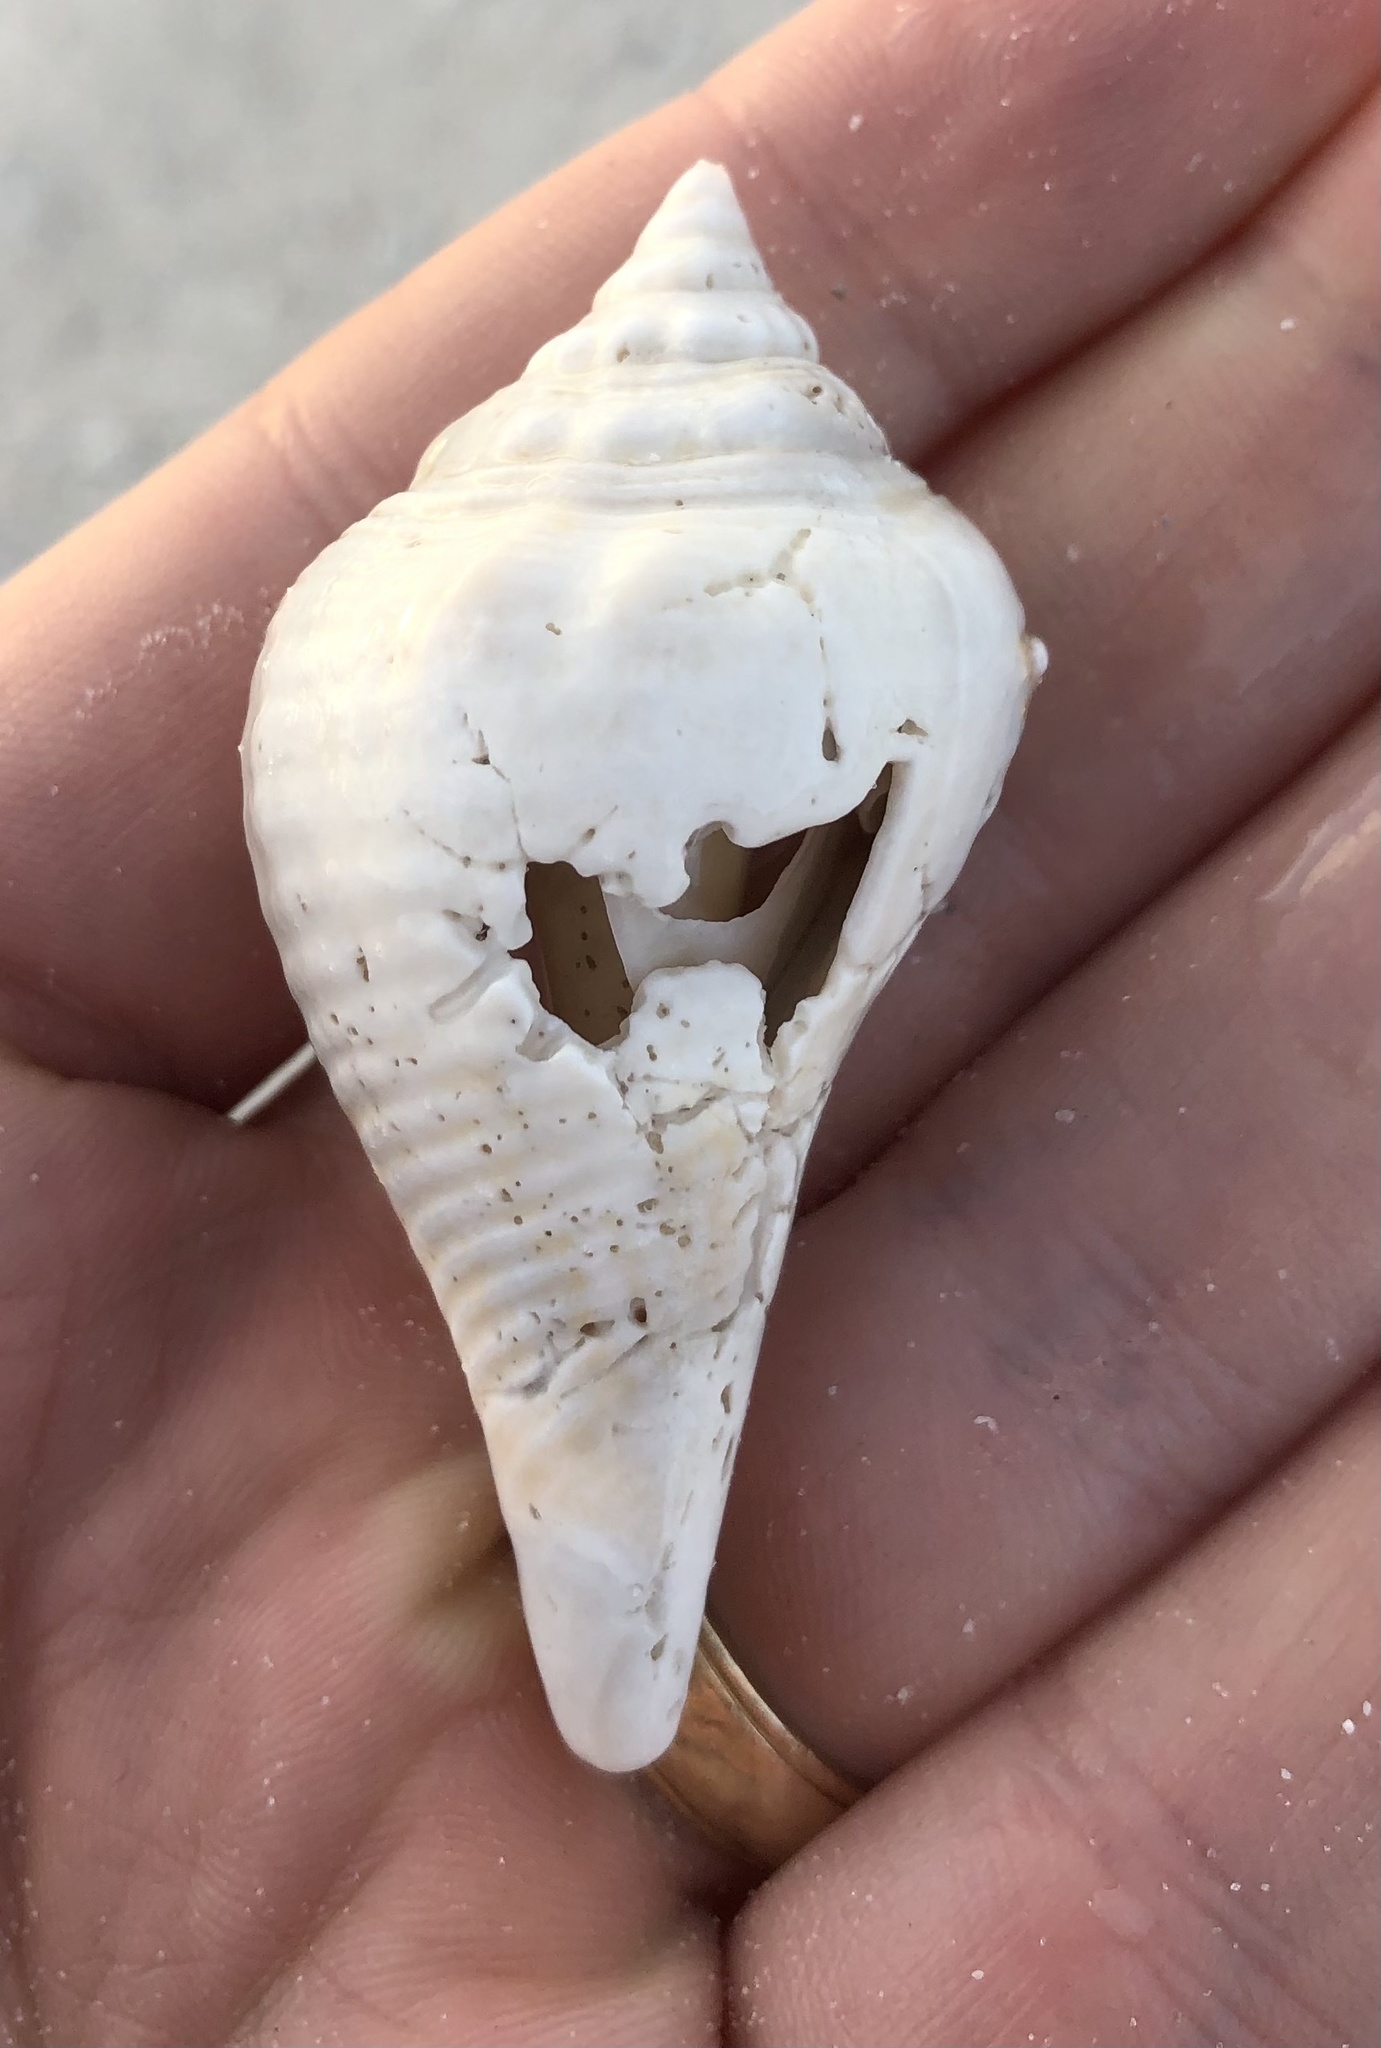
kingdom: Animalia
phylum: Mollusca
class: Gastropoda
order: Littorinimorpha
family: Strombidae
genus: Strombus
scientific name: Strombus alatus
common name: Florida fighting conch
